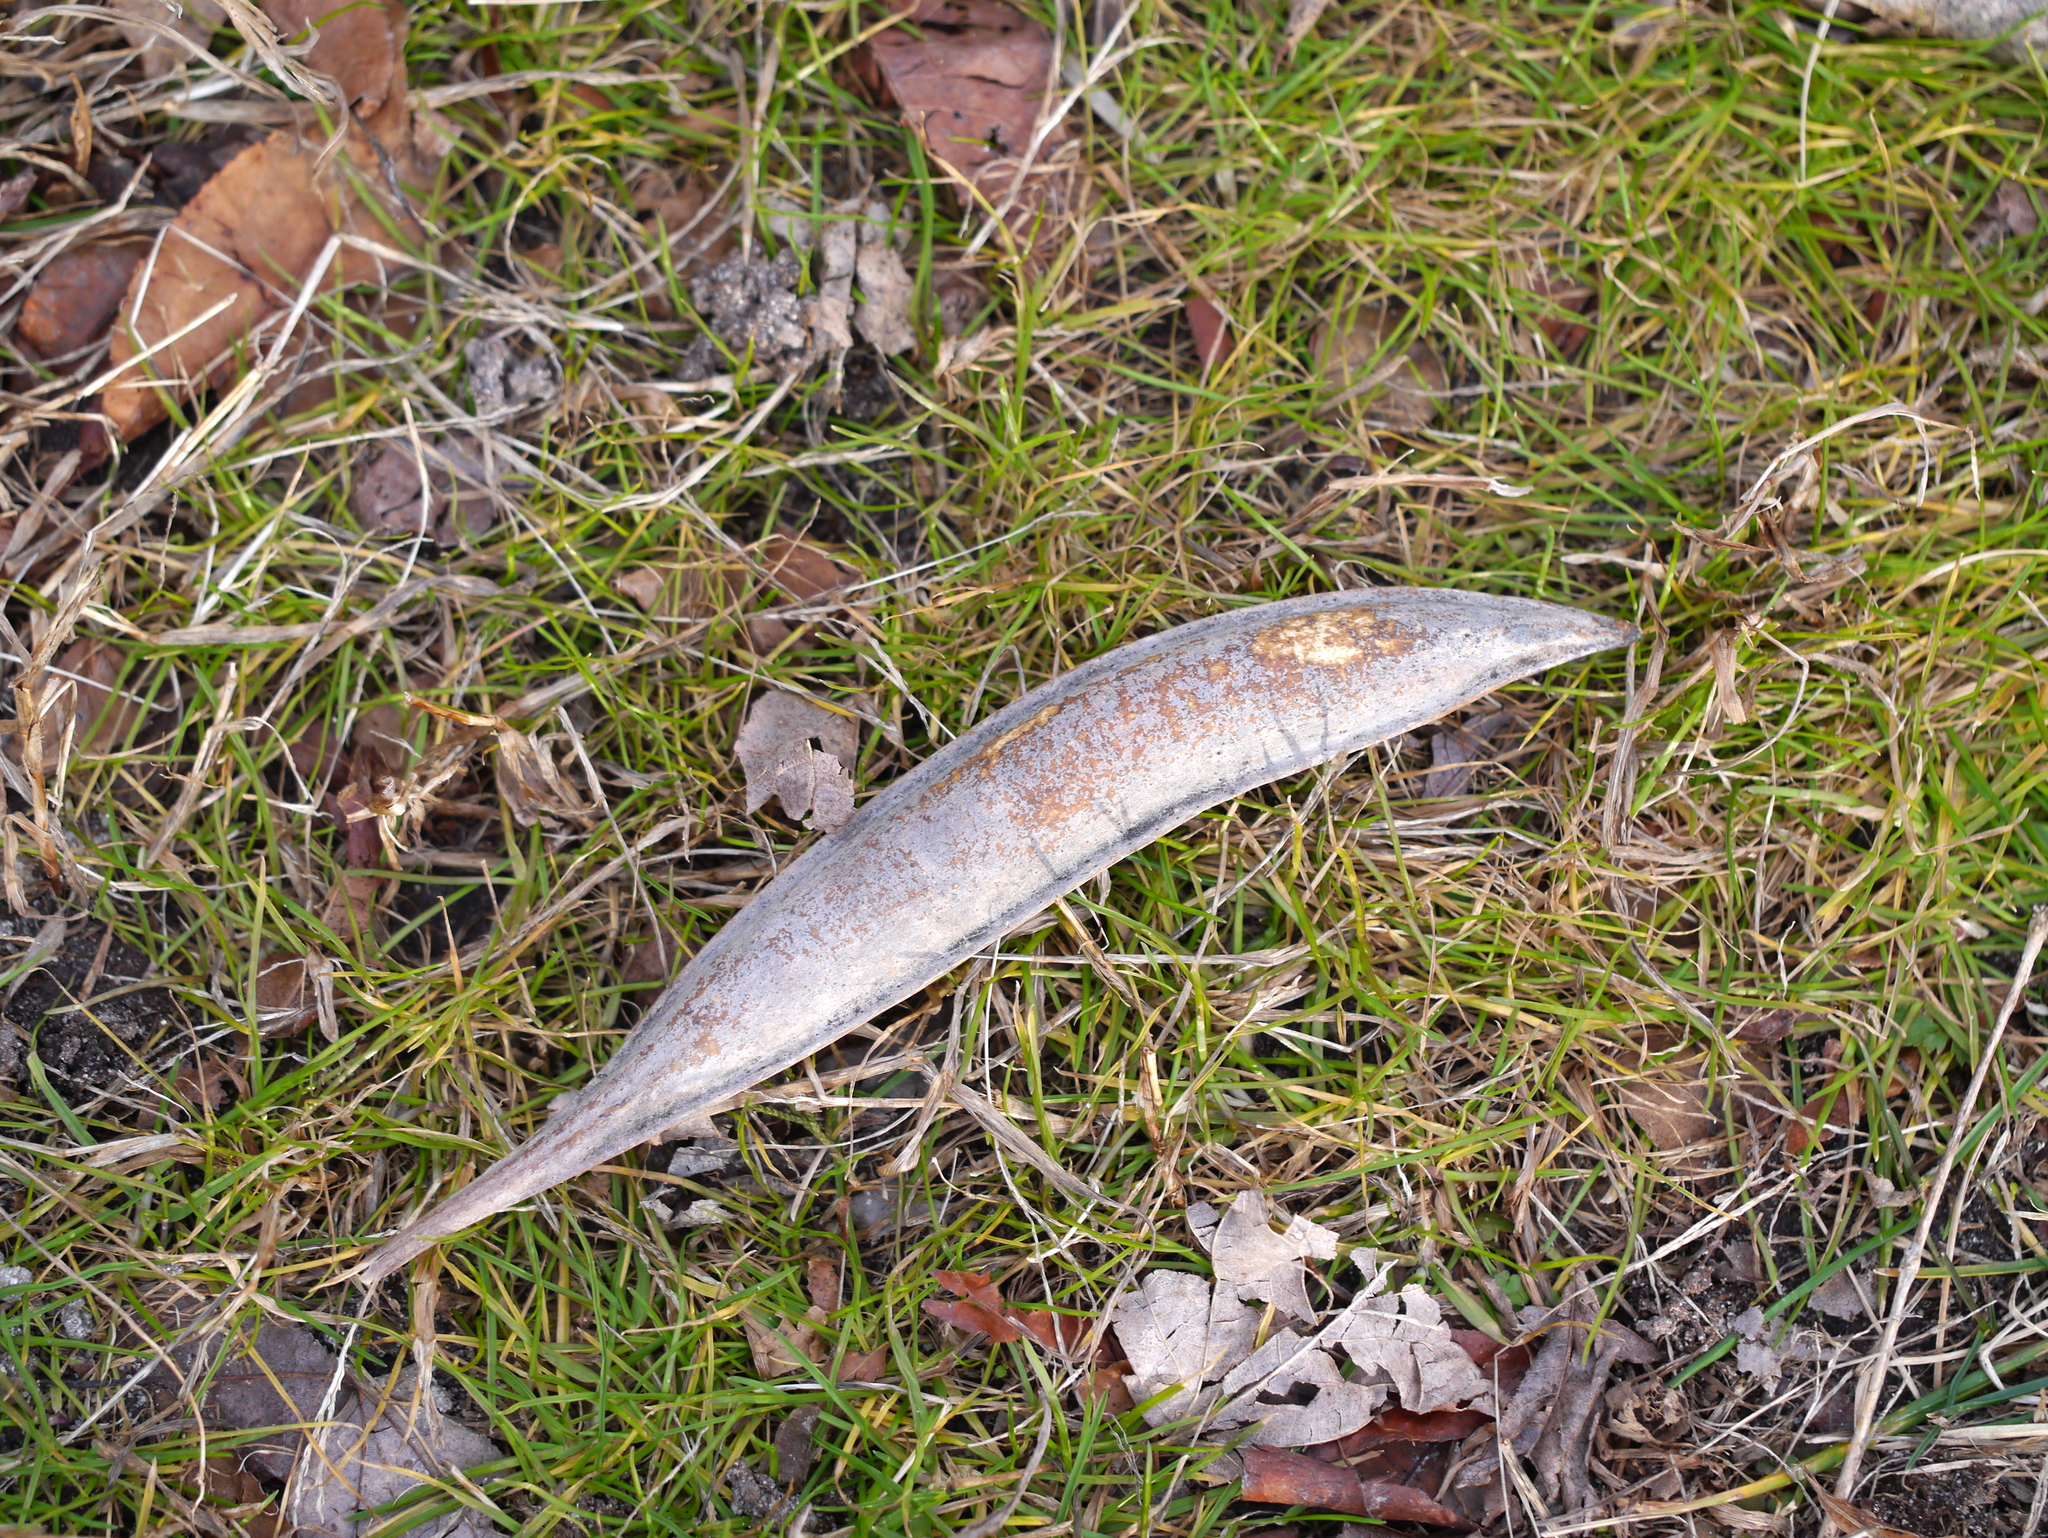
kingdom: Plantae
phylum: Tracheophyta
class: Magnoliopsida
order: Lamiales
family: Bignoniaceae
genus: Campsis
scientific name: Campsis radicans
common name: Trumpet-creeper
